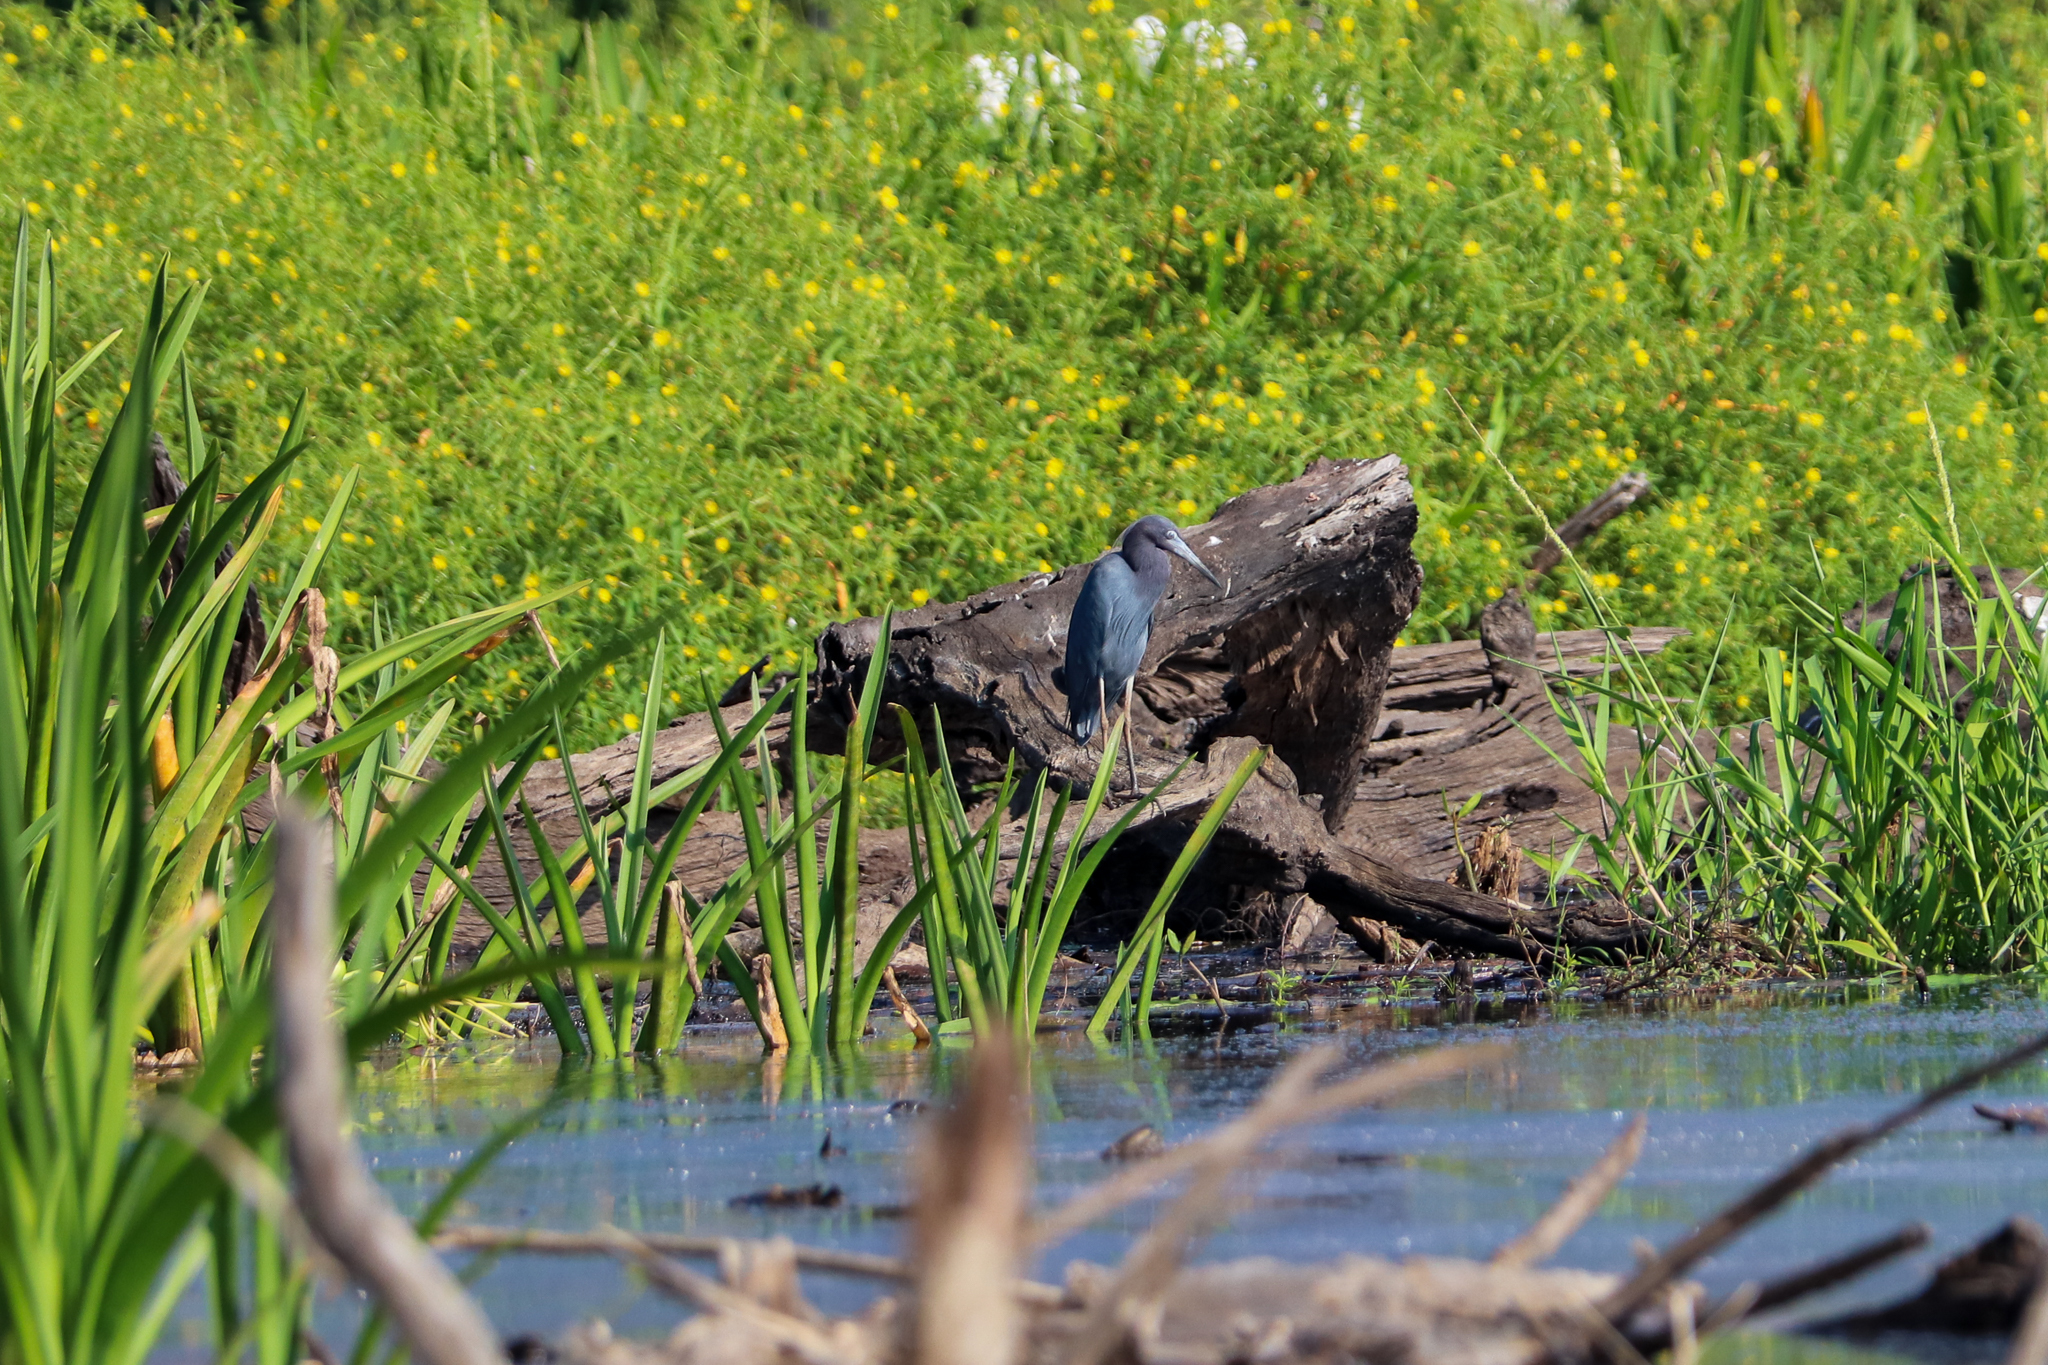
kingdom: Animalia
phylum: Chordata
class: Aves
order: Pelecaniformes
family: Ardeidae
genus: Egretta
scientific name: Egretta caerulea
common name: Little blue heron
